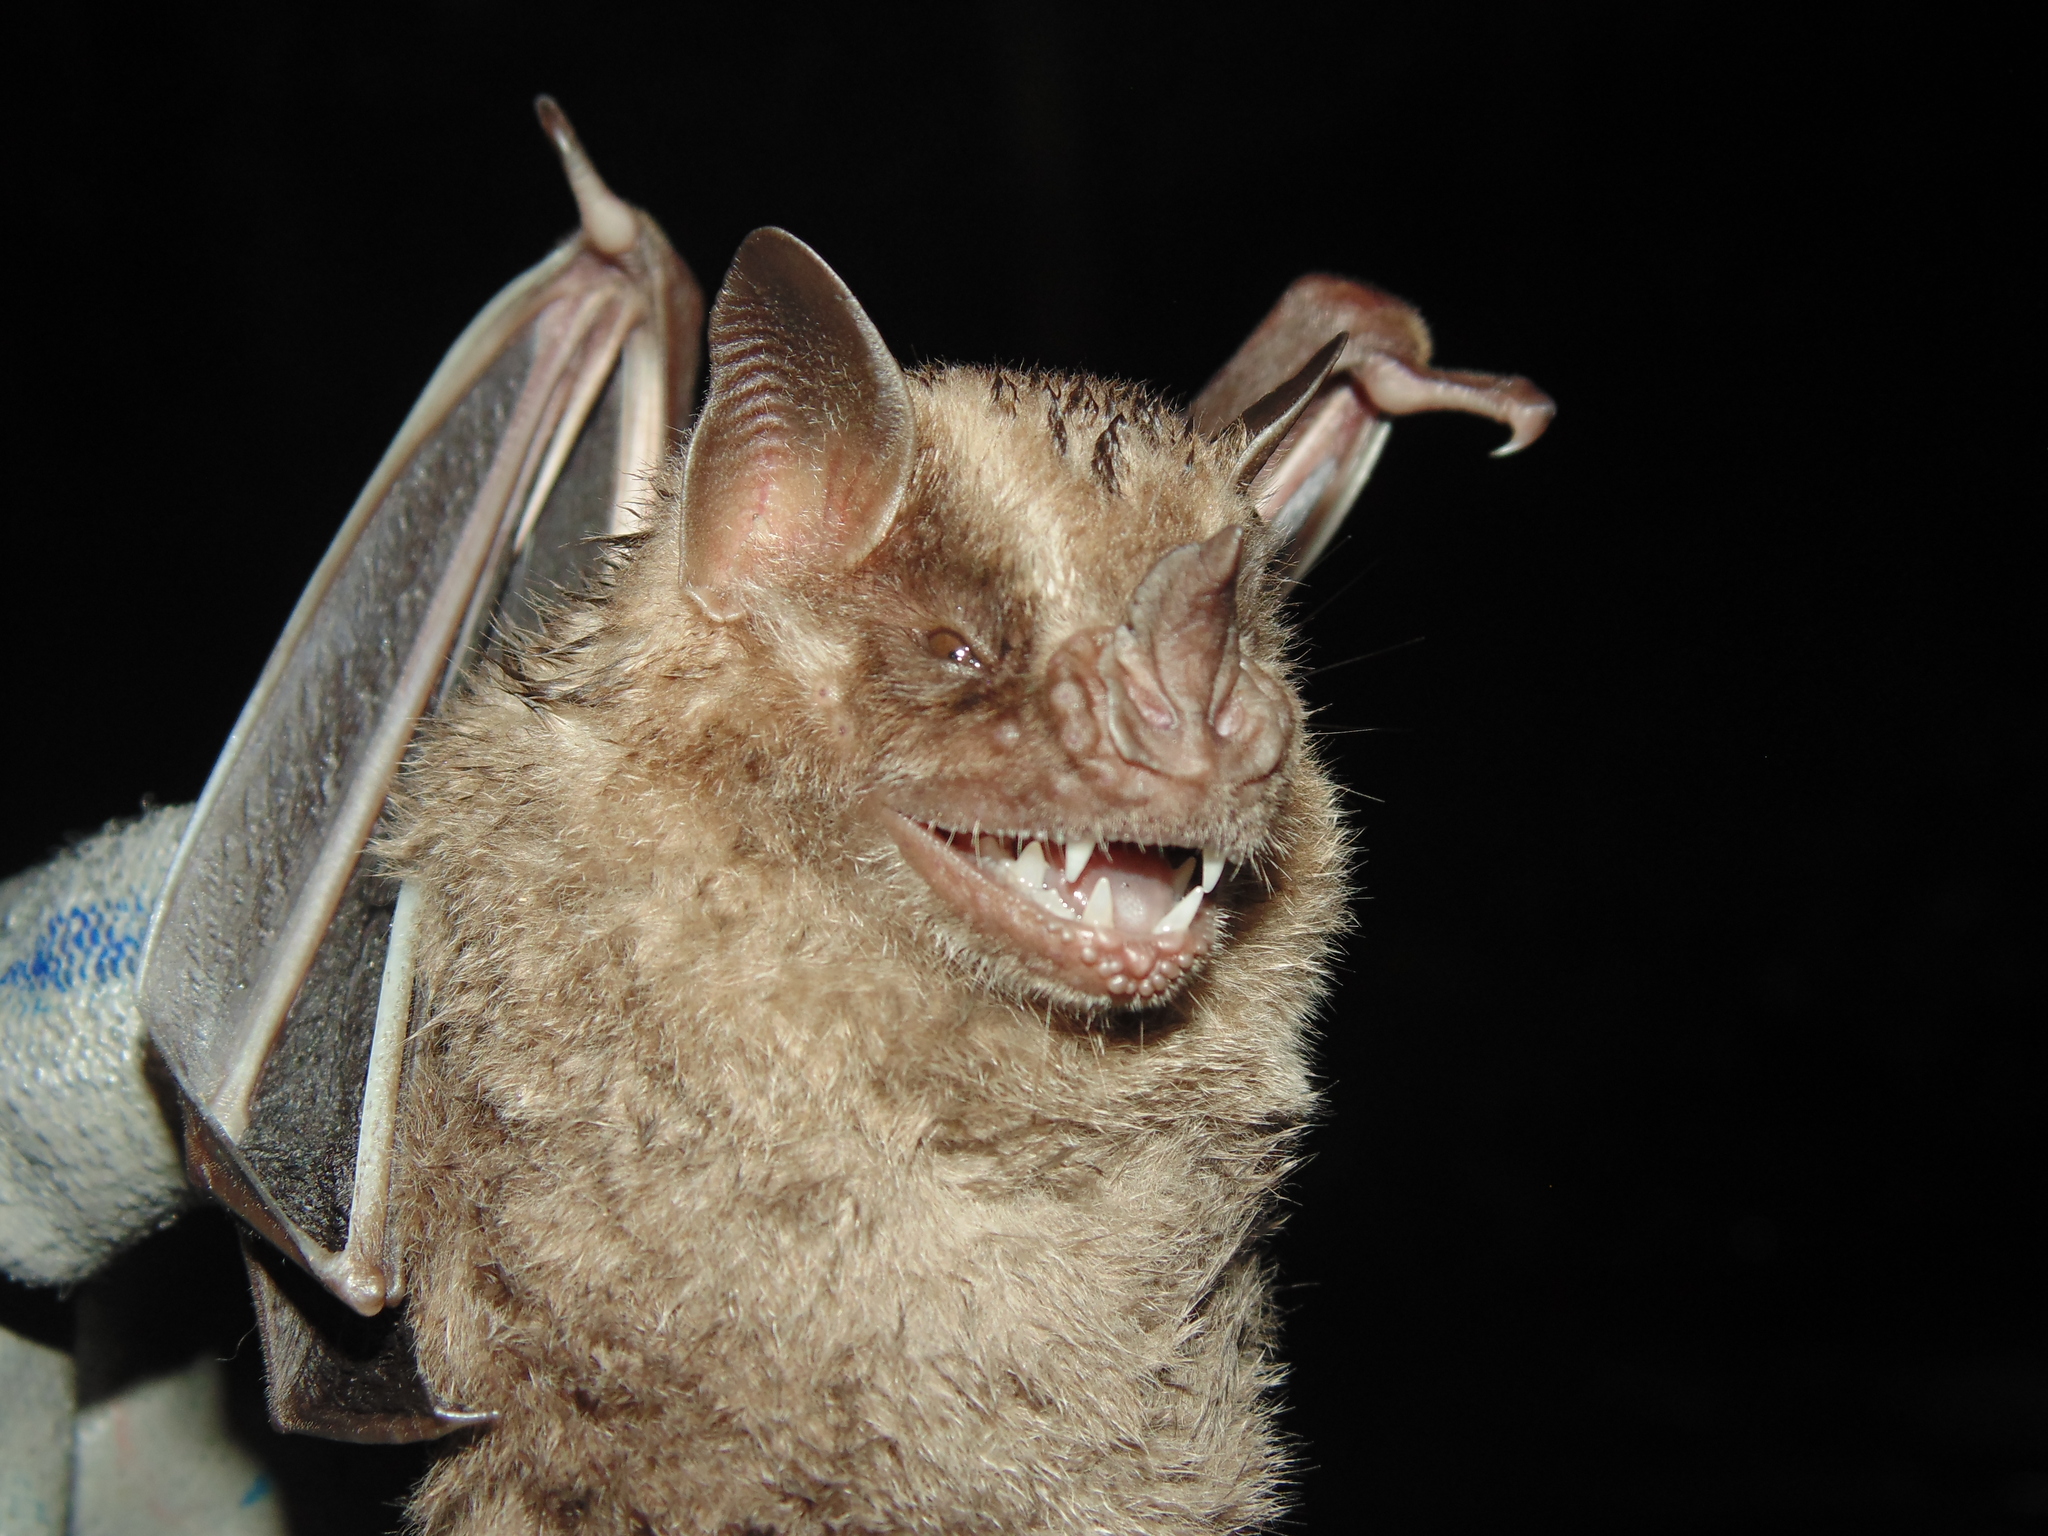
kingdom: Animalia
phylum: Chordata
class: Mammalia
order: Chiroptera
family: Phyllostomidae
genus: Artibeus
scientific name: Artibeus fimbriatus
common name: Fringed fruit-eating bat
